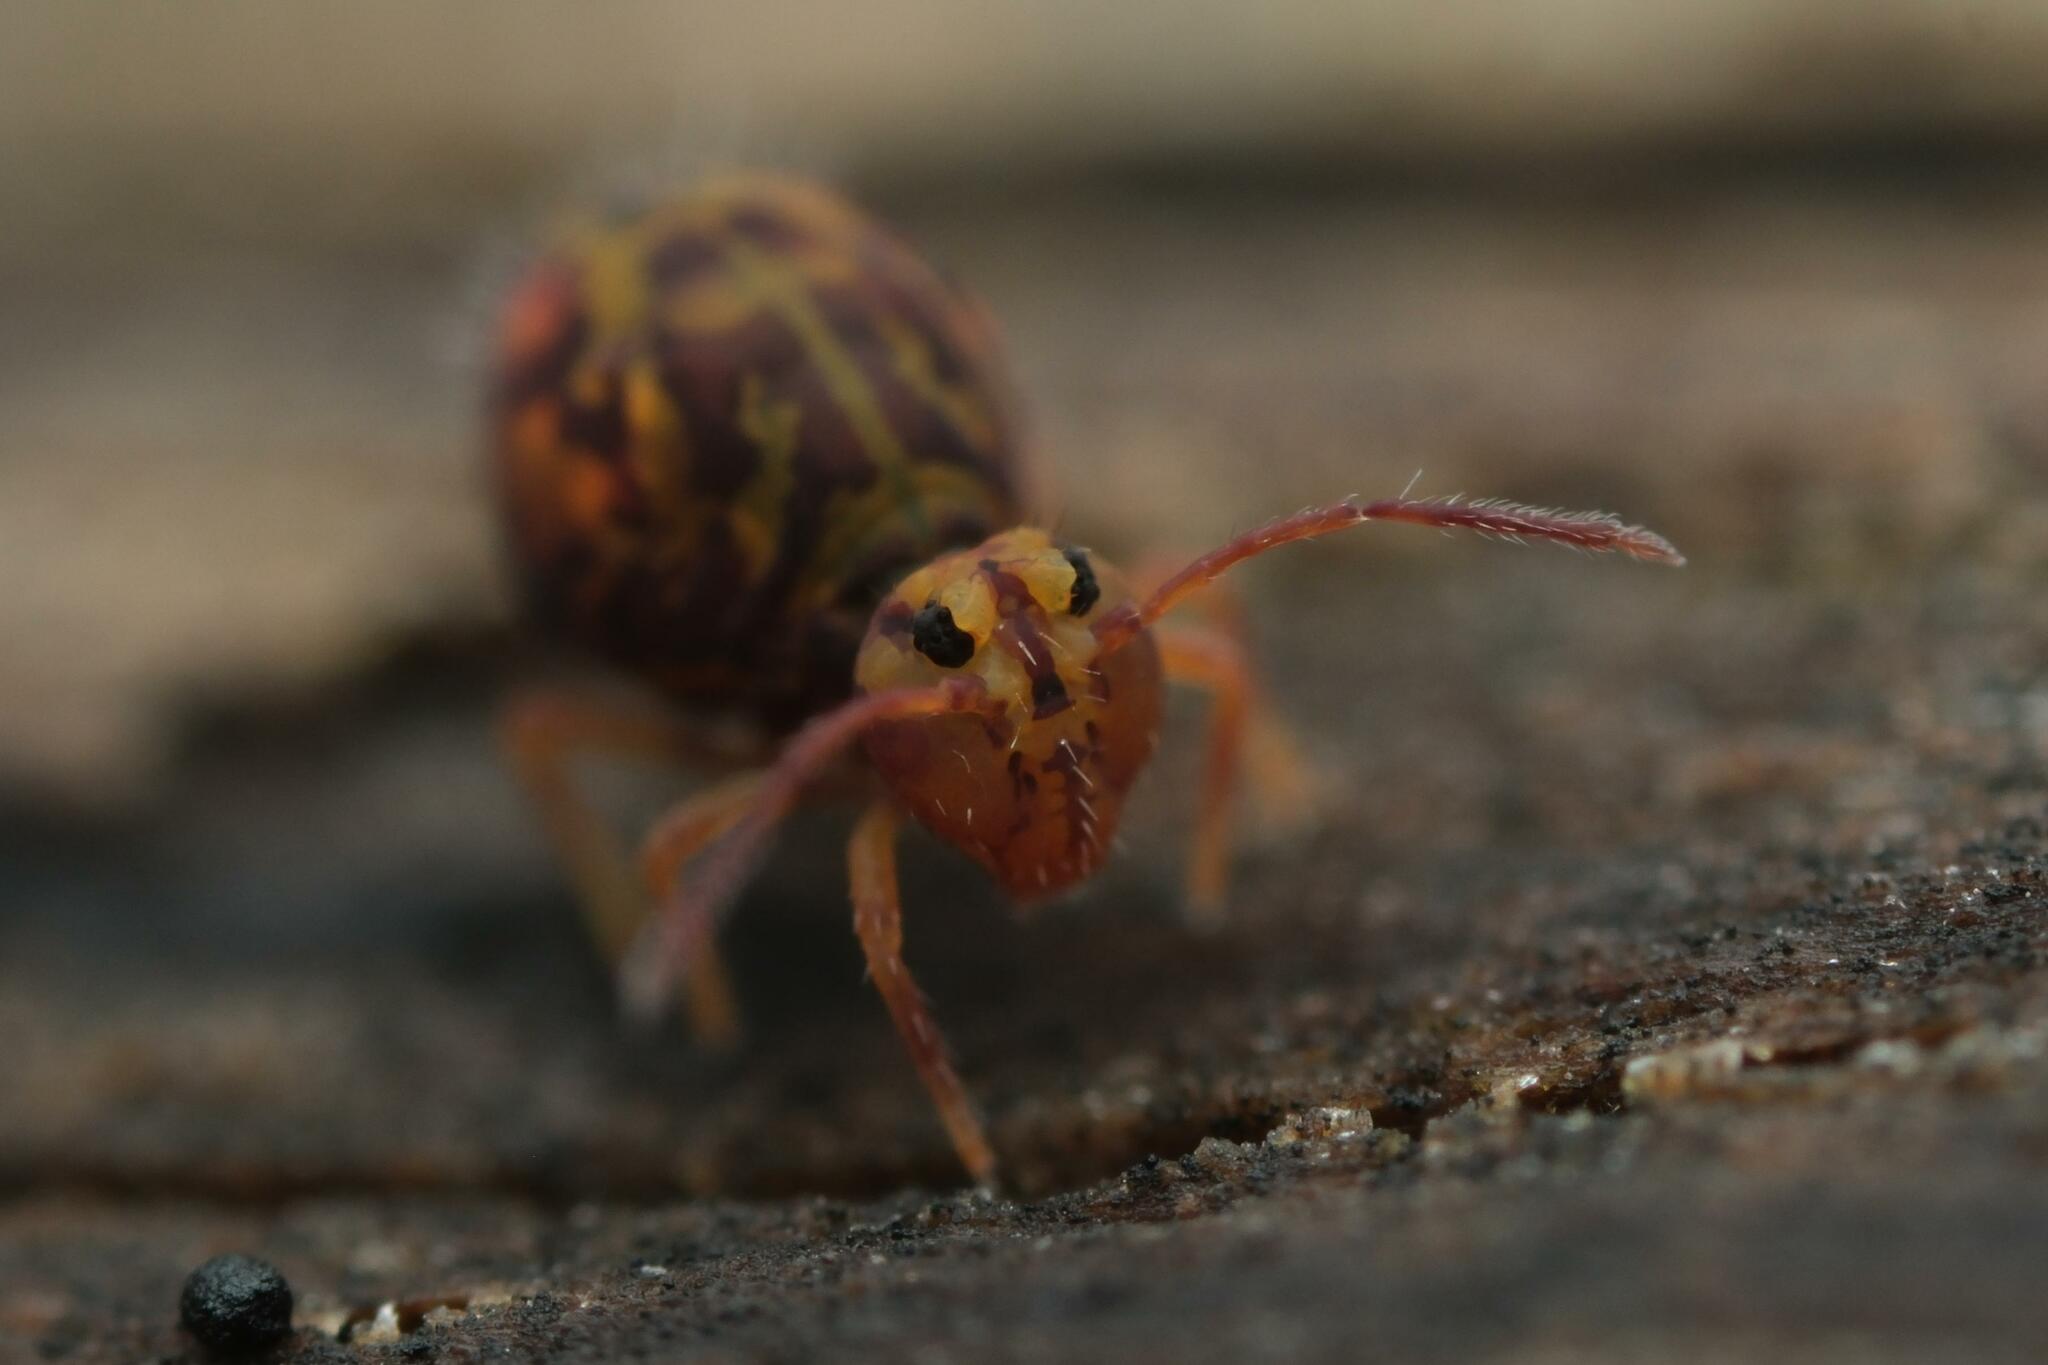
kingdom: Animalia
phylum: Arthropoda
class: Collembola
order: Symphypleona
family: Dicyrtomidae
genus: Dicyrtomina
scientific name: Dicyrtomina ornata
